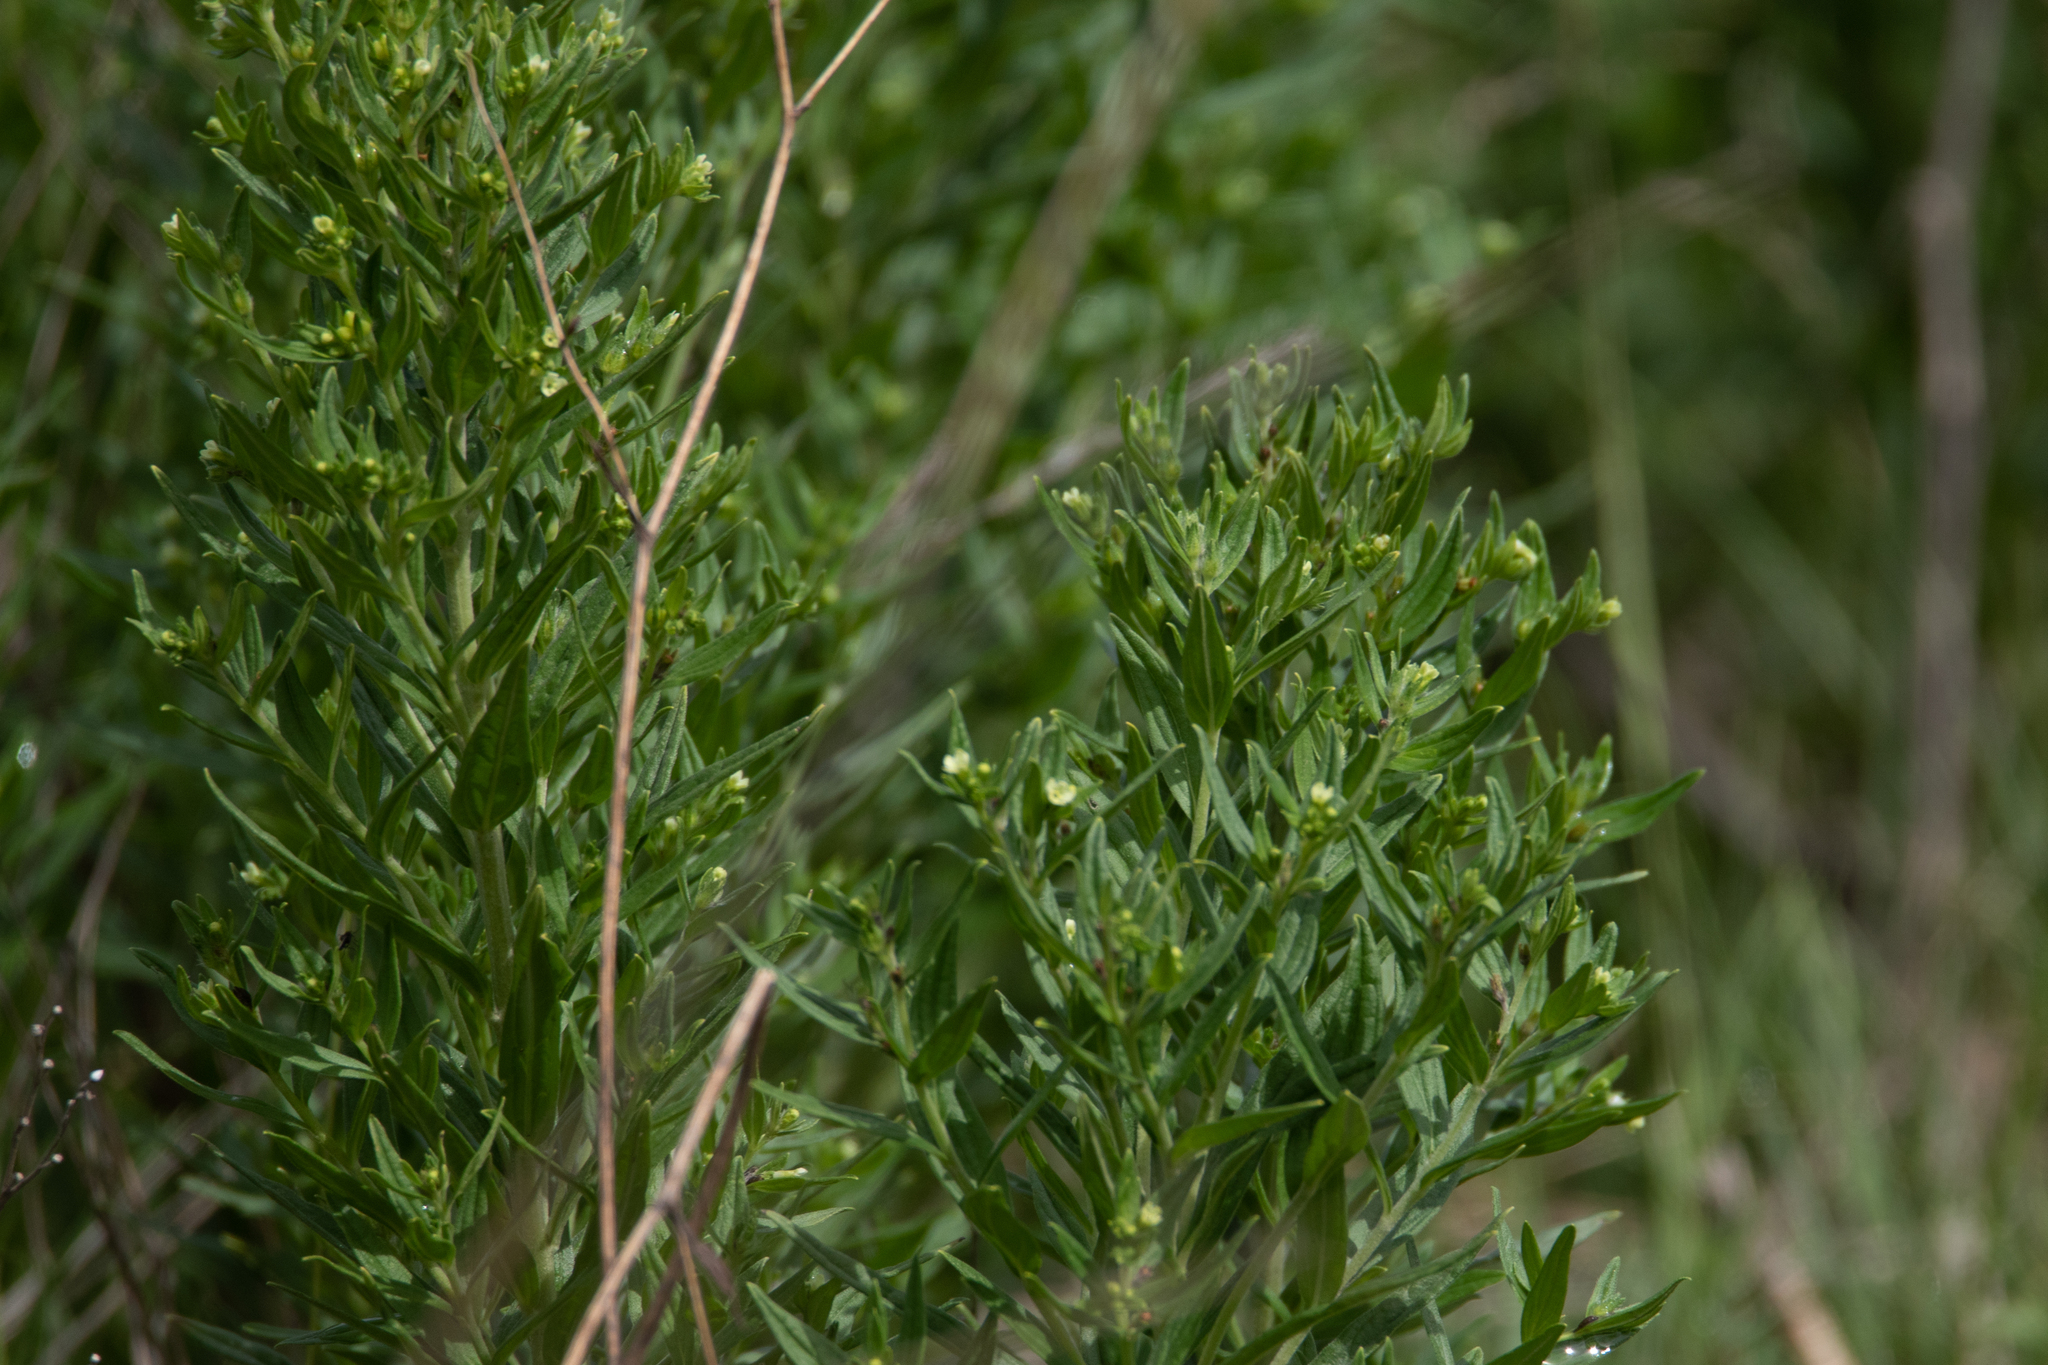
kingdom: Plantae
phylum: Tracheophyta
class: Magnoliopsida
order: Boraginales
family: Boraginaceae
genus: Lithospermum
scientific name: Lithospermum officinale
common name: Common gromwell
